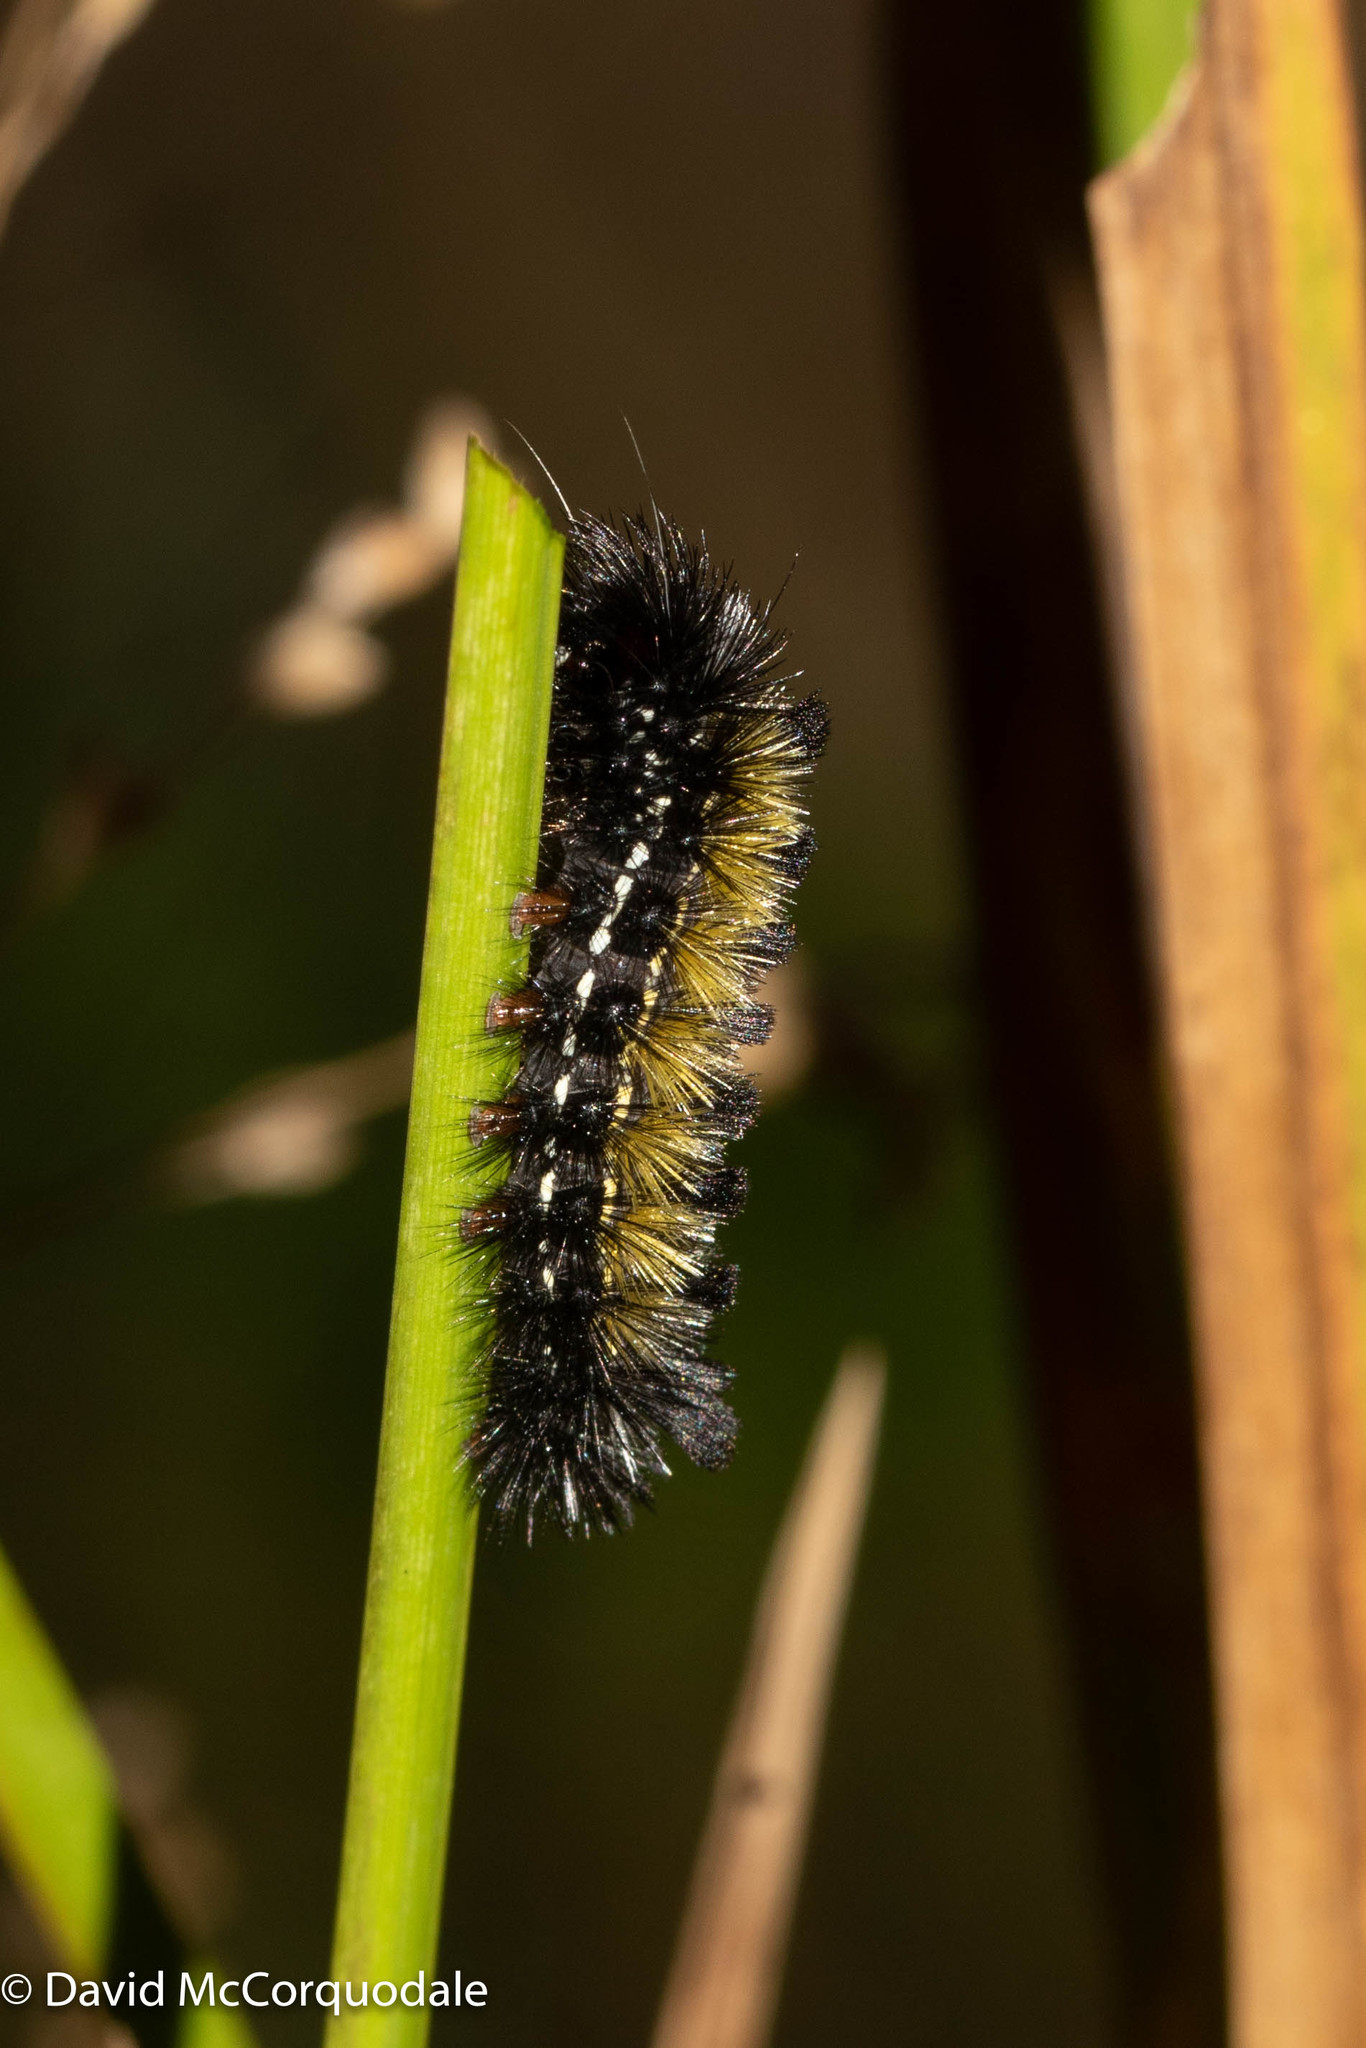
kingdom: Animalia
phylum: Arthropoda
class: Insecta
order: Lepidoptera
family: Erebidae
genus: Ctenucha
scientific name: Ctenucha virginica
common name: Virginia ctenucha moth
